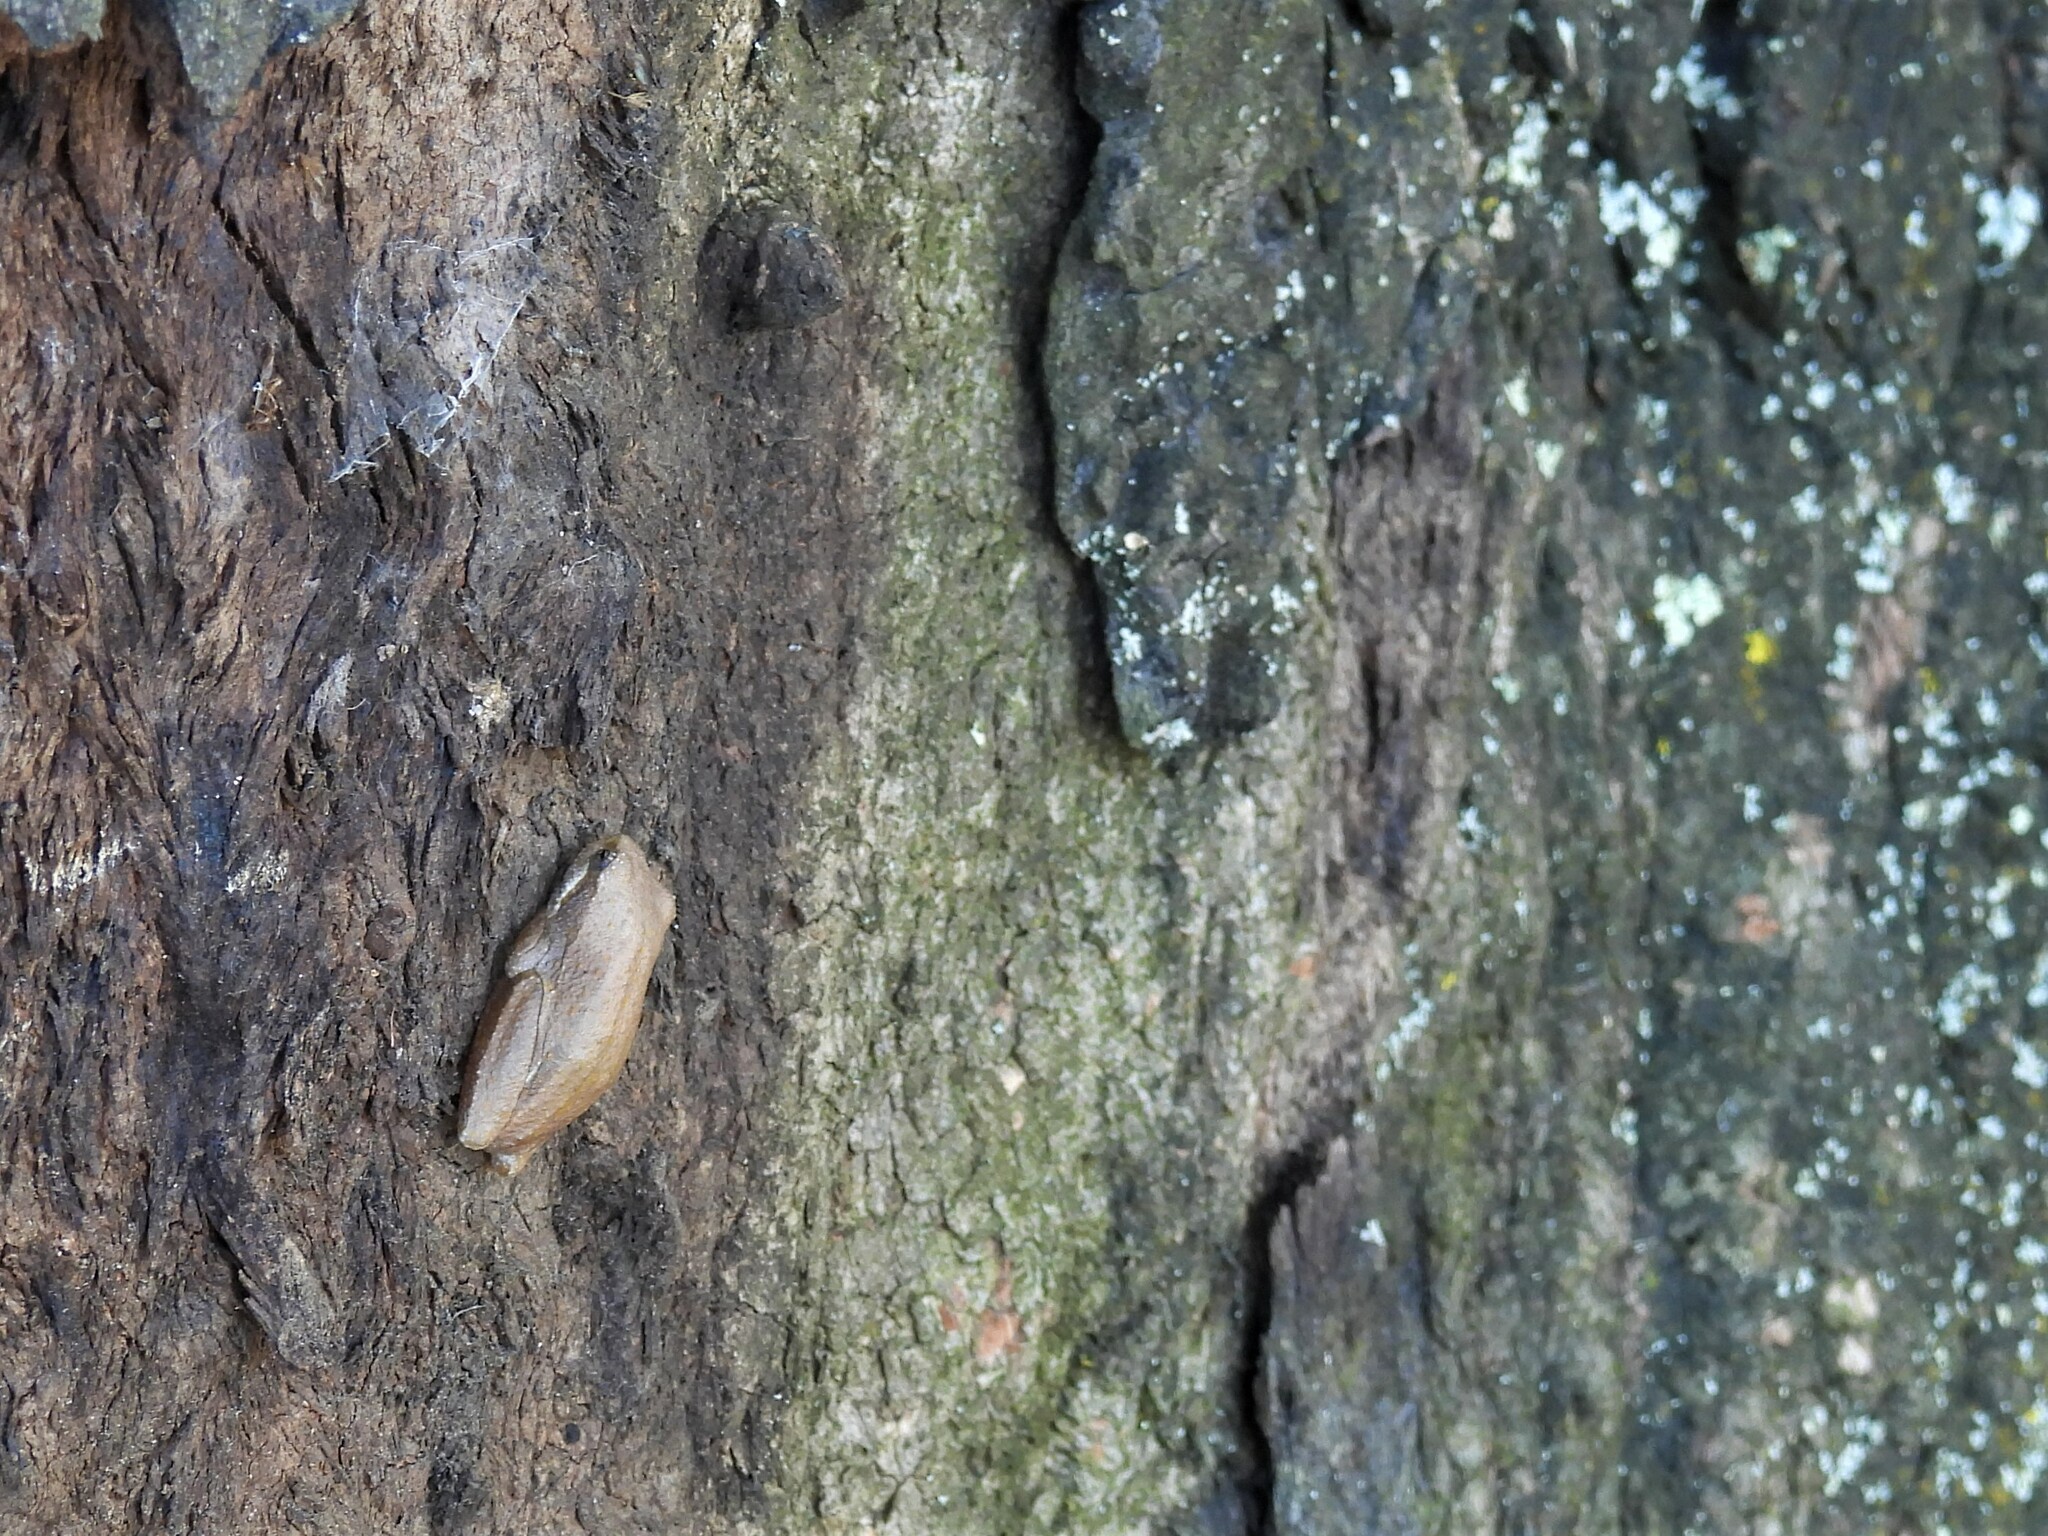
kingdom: Animalia
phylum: Chordata
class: Amphibia
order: Anura
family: Hyperoliidae
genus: Hyperolius
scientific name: Hyperolius marmoratus
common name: Painted reed frog
